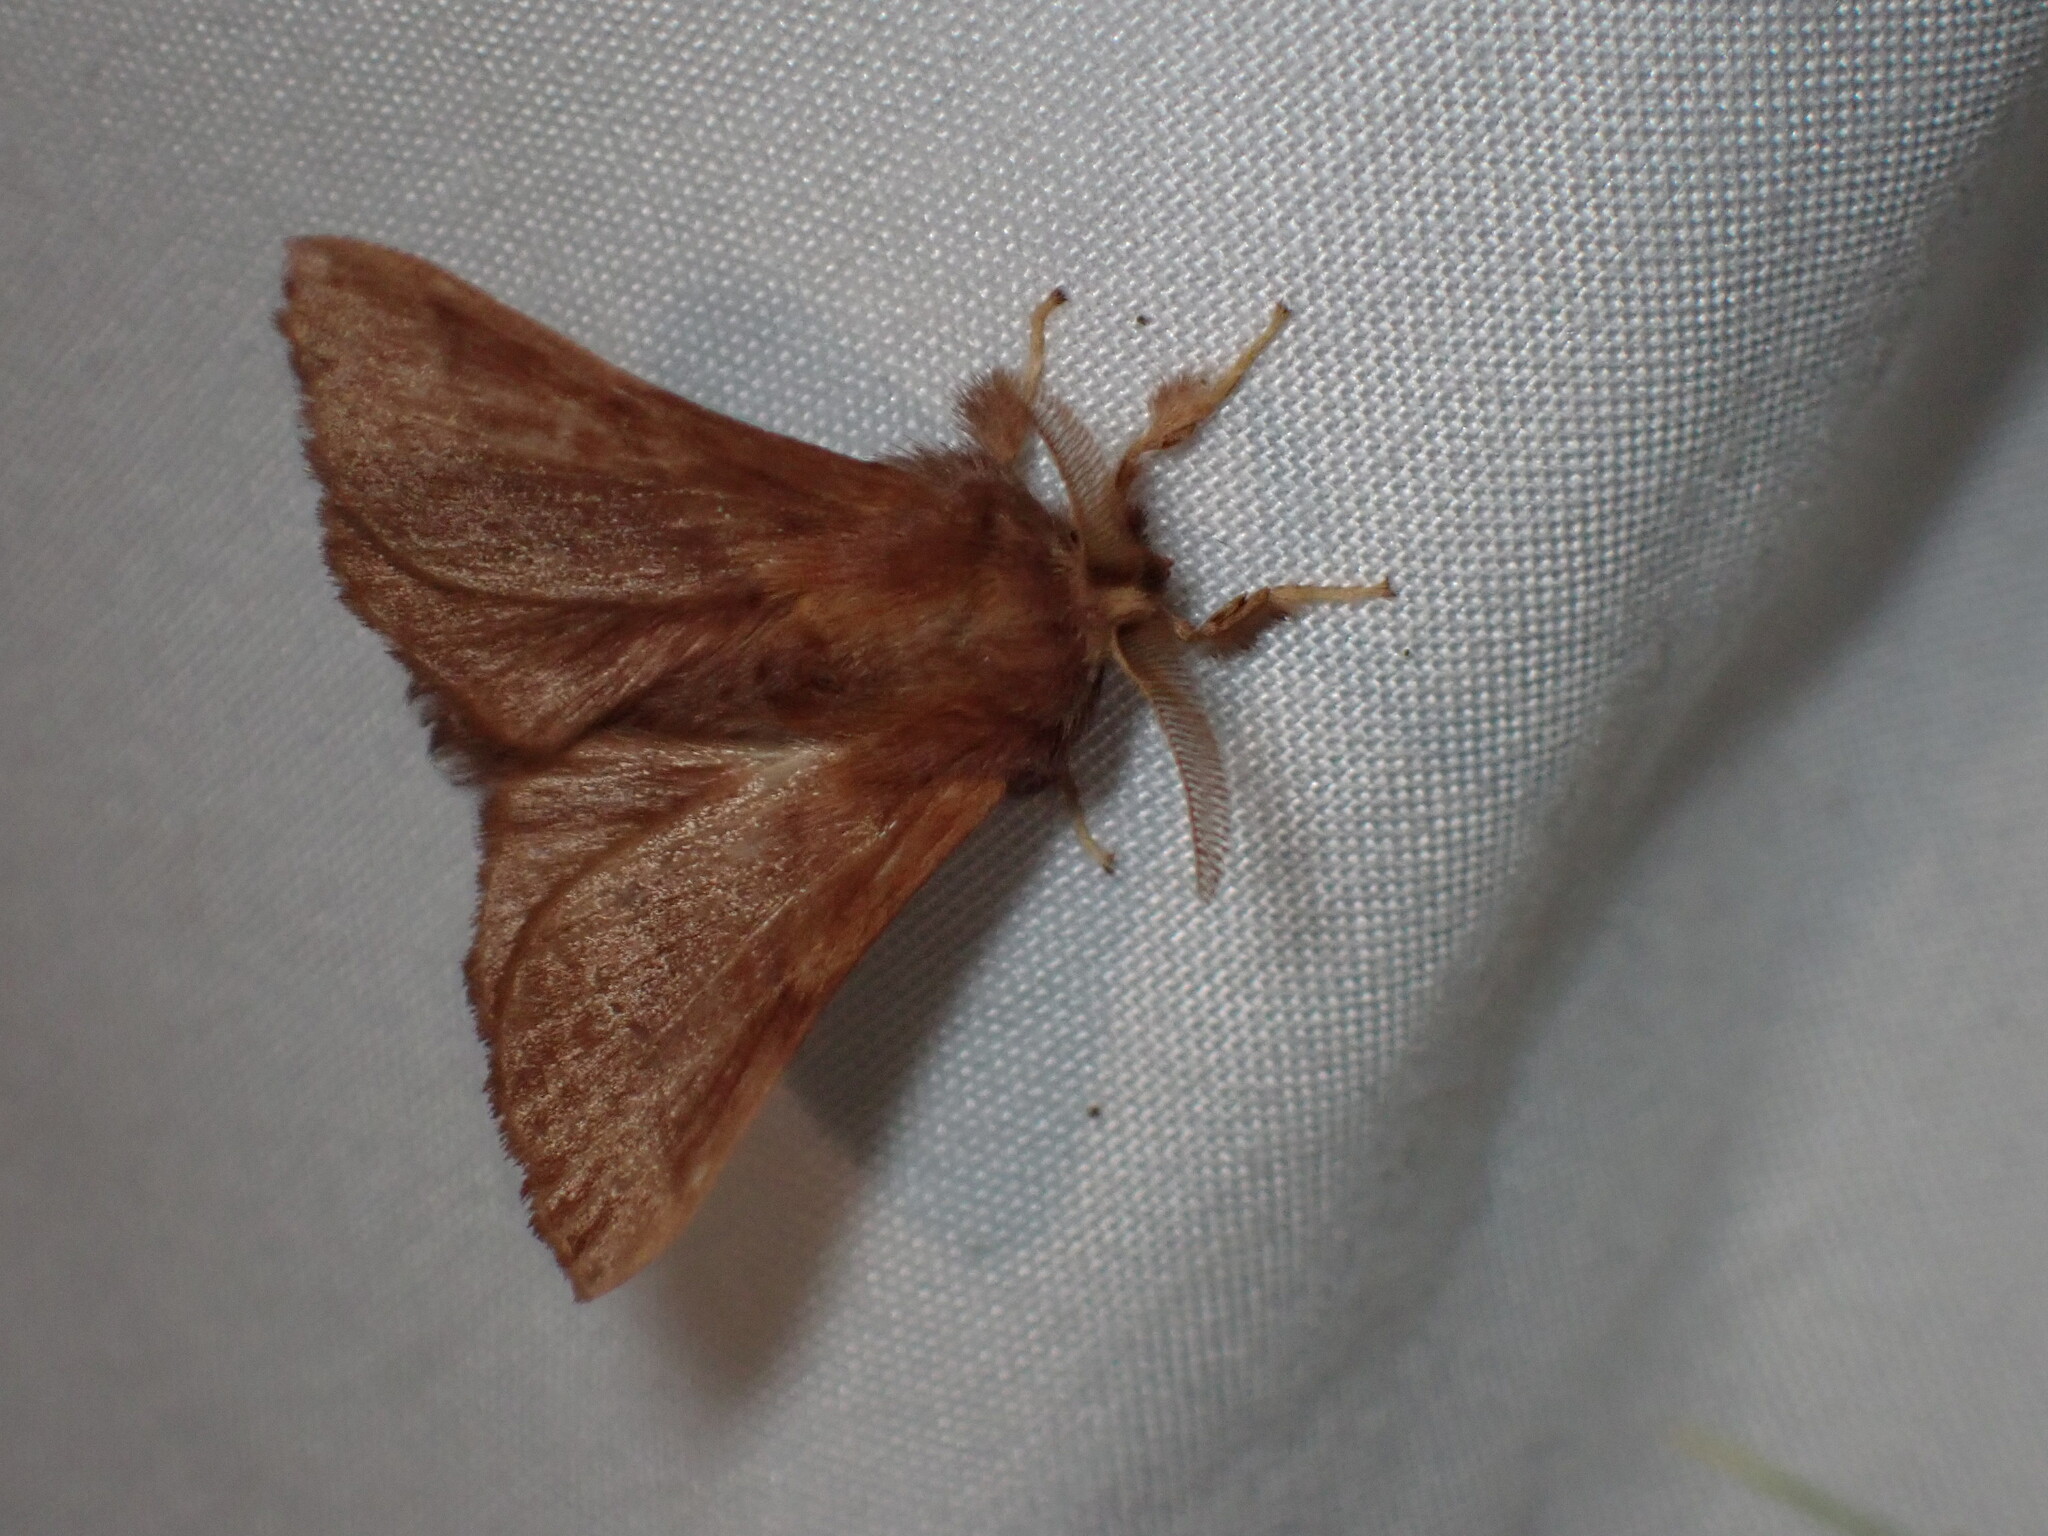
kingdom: Animalia
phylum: Arthropoda
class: Insecta
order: Lepidoptera
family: Lasiocampidae
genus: Malacosoma
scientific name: Malacosoma californica
